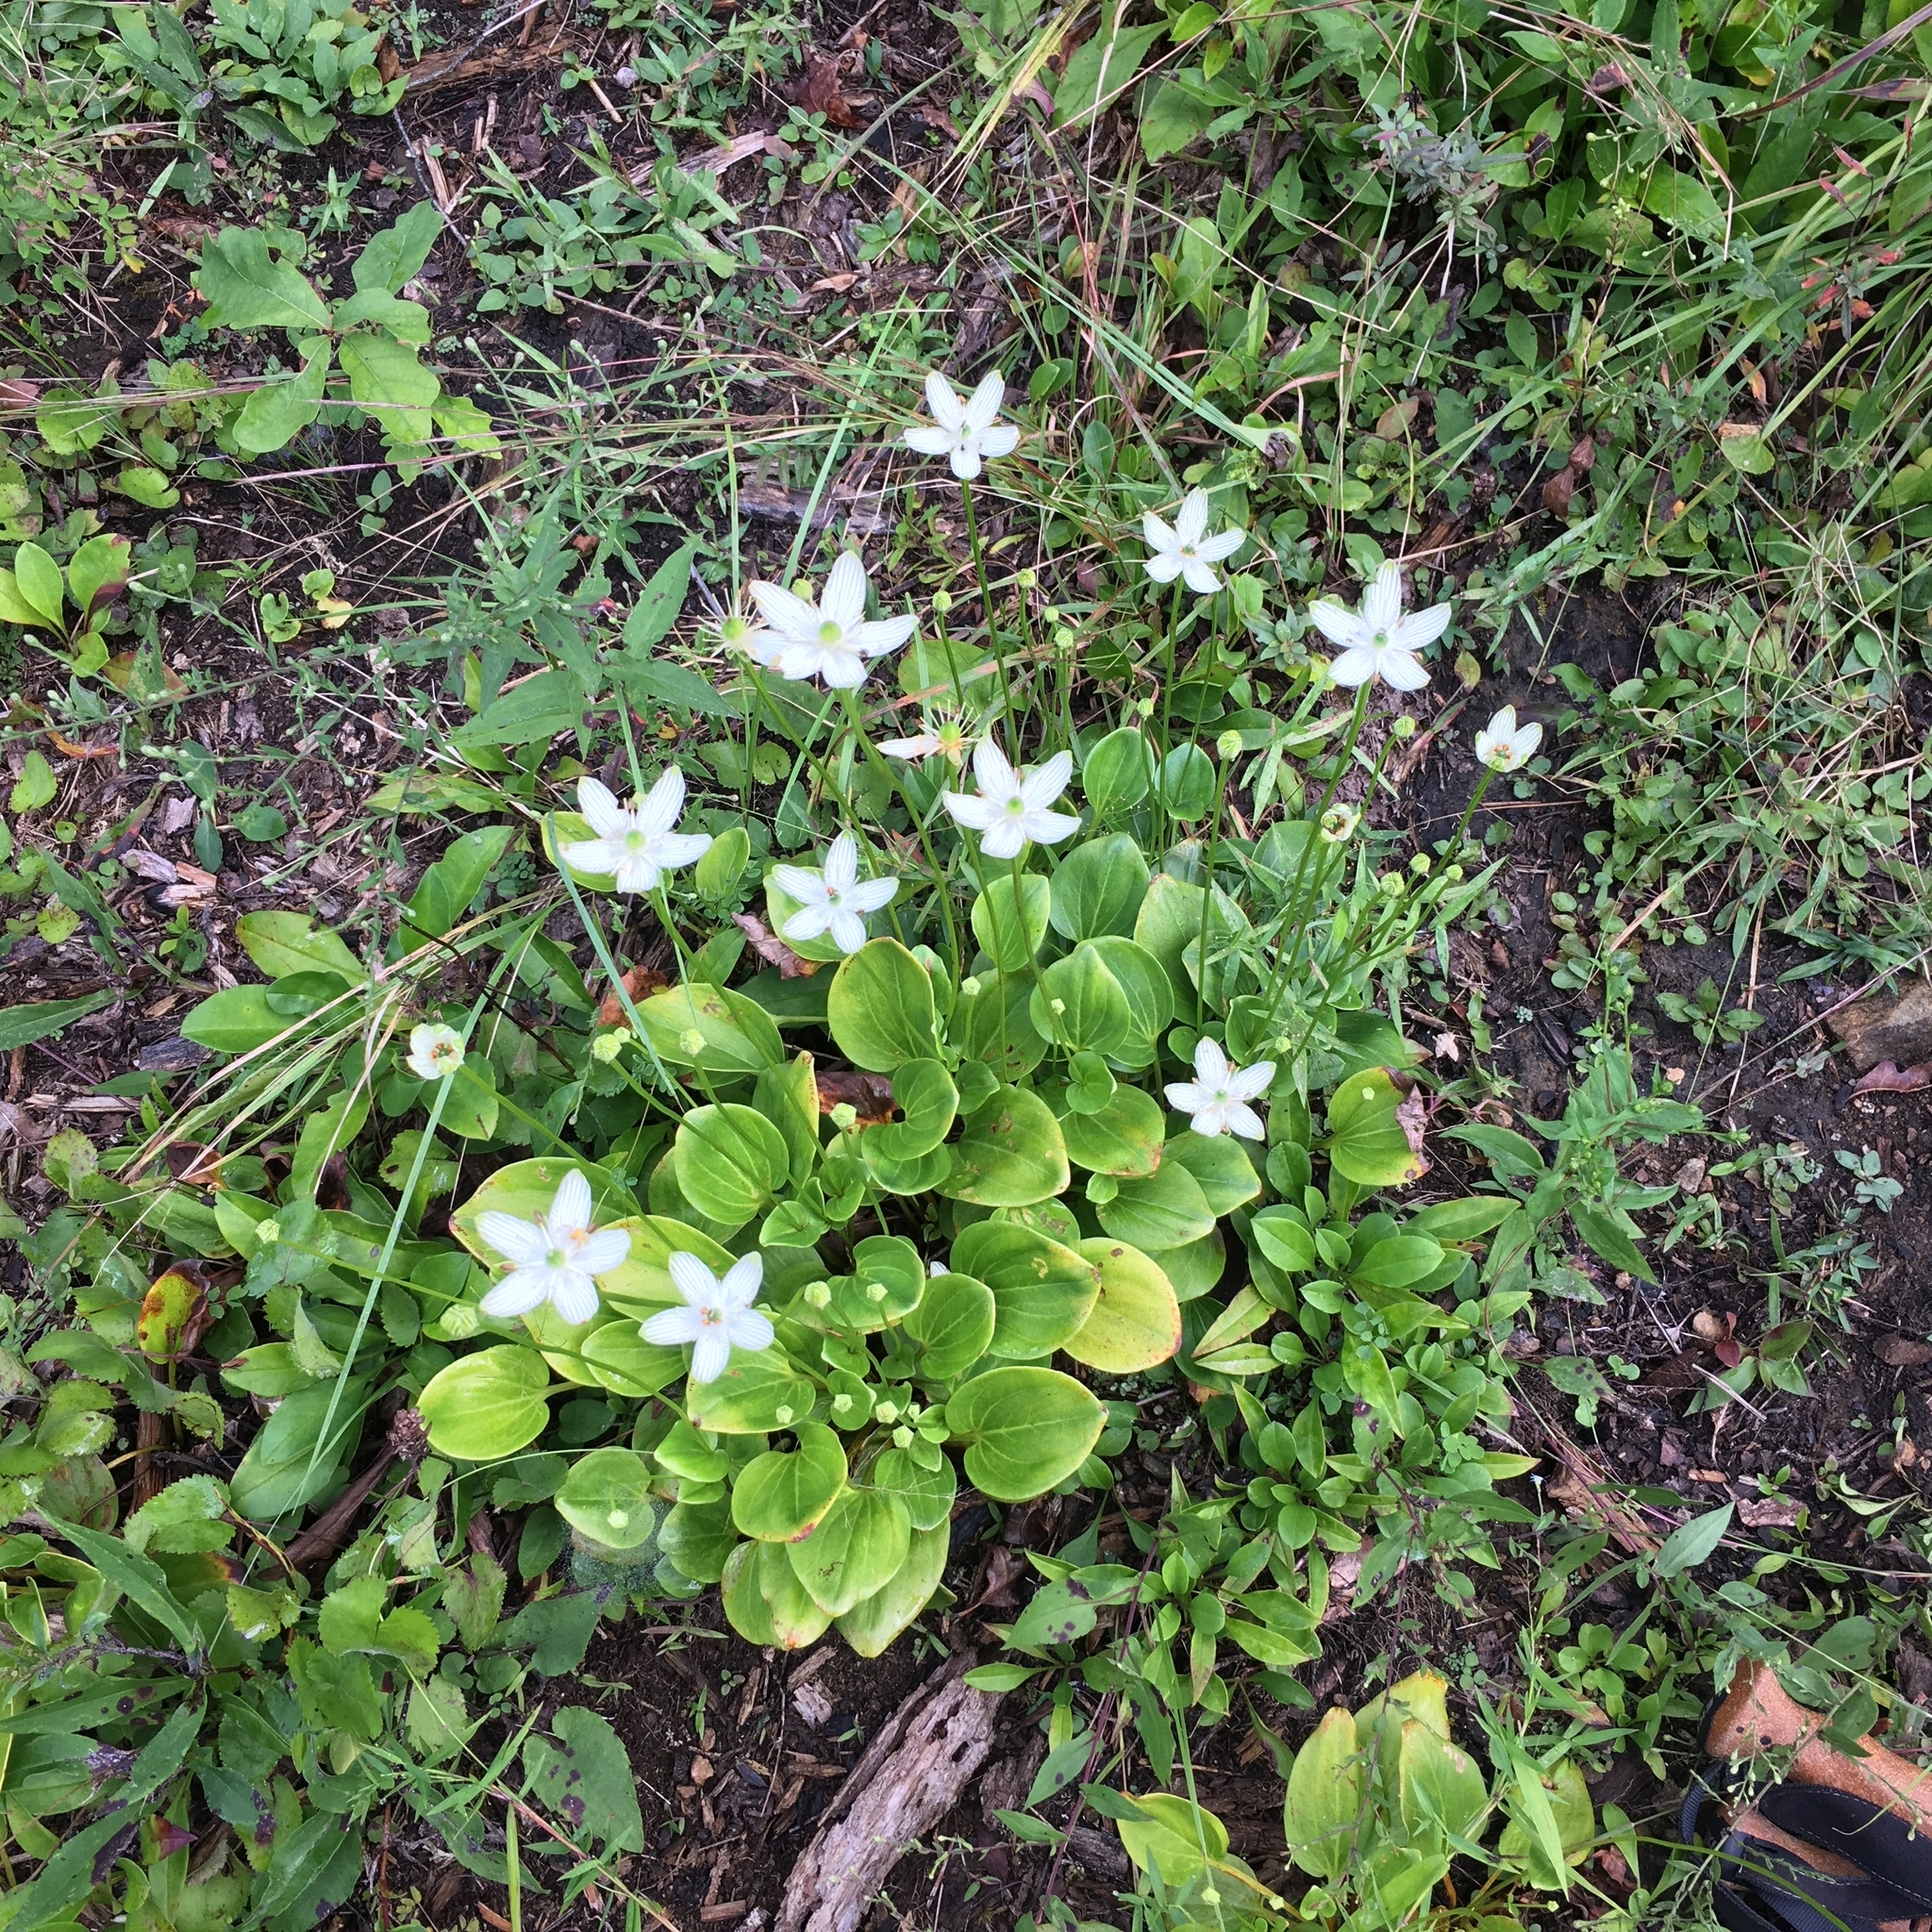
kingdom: Plantae
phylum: Tracheophyta
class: Magnoliopsida
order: Celastrales
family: Parnassiaceae
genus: Parnassia
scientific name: Parnassia grandifolia
